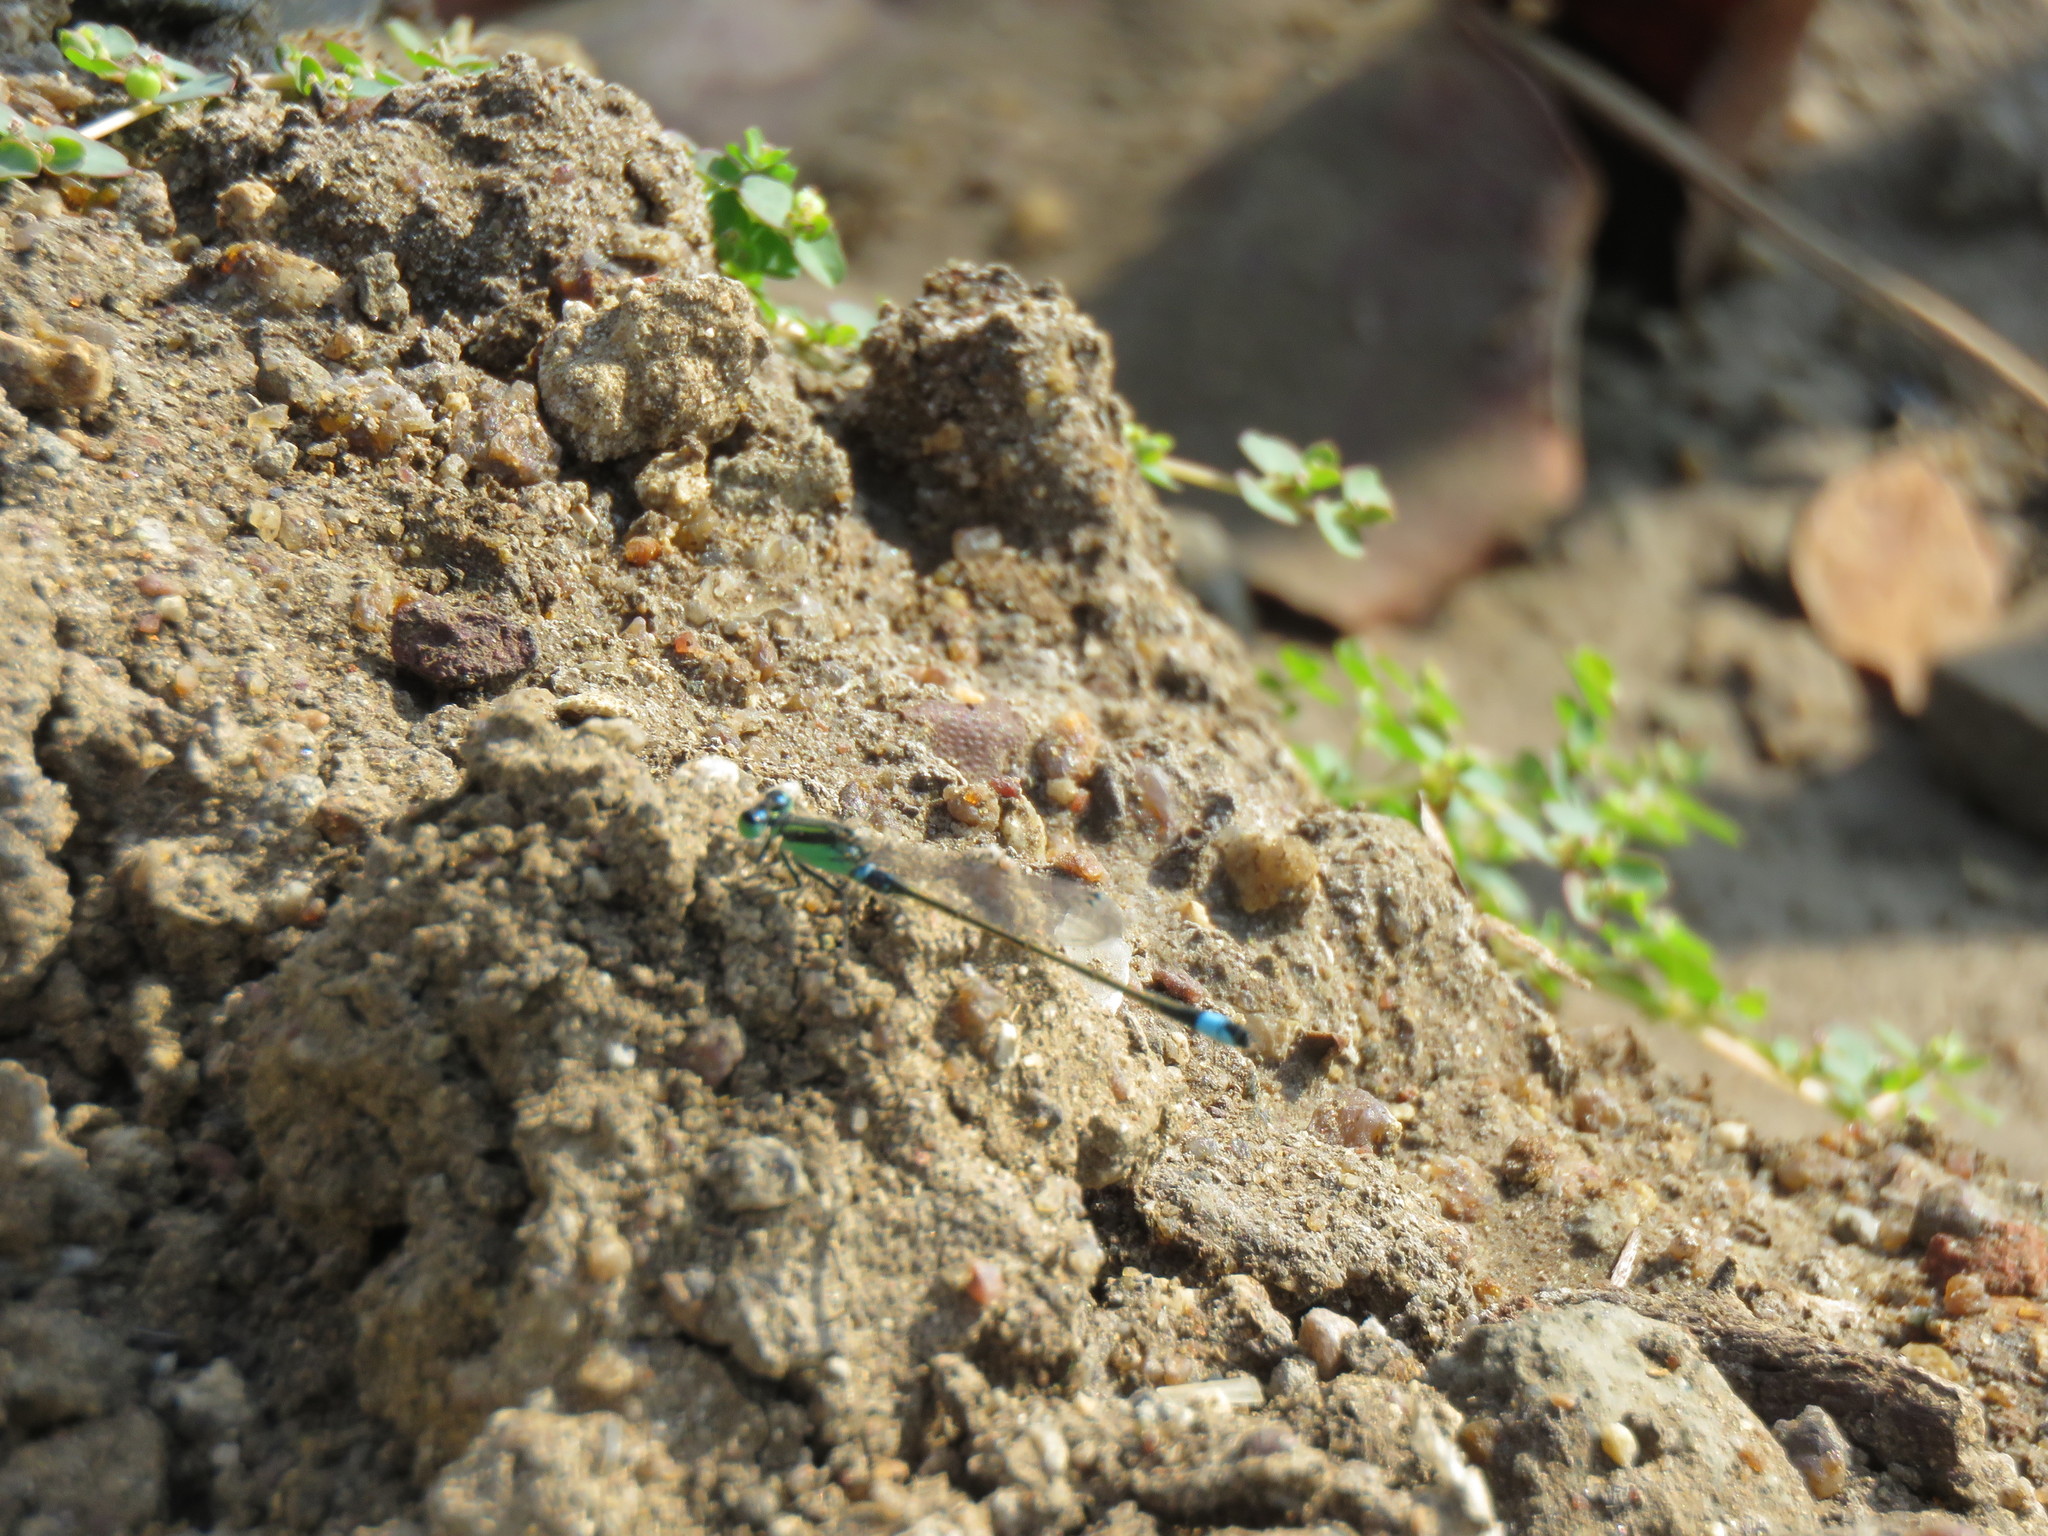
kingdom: Animalia
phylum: Arthropoda
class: Insecta
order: Odonata
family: Coenagrionidae
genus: Ischnura
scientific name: Ischnura senegalensis
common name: Tropical bluetail
